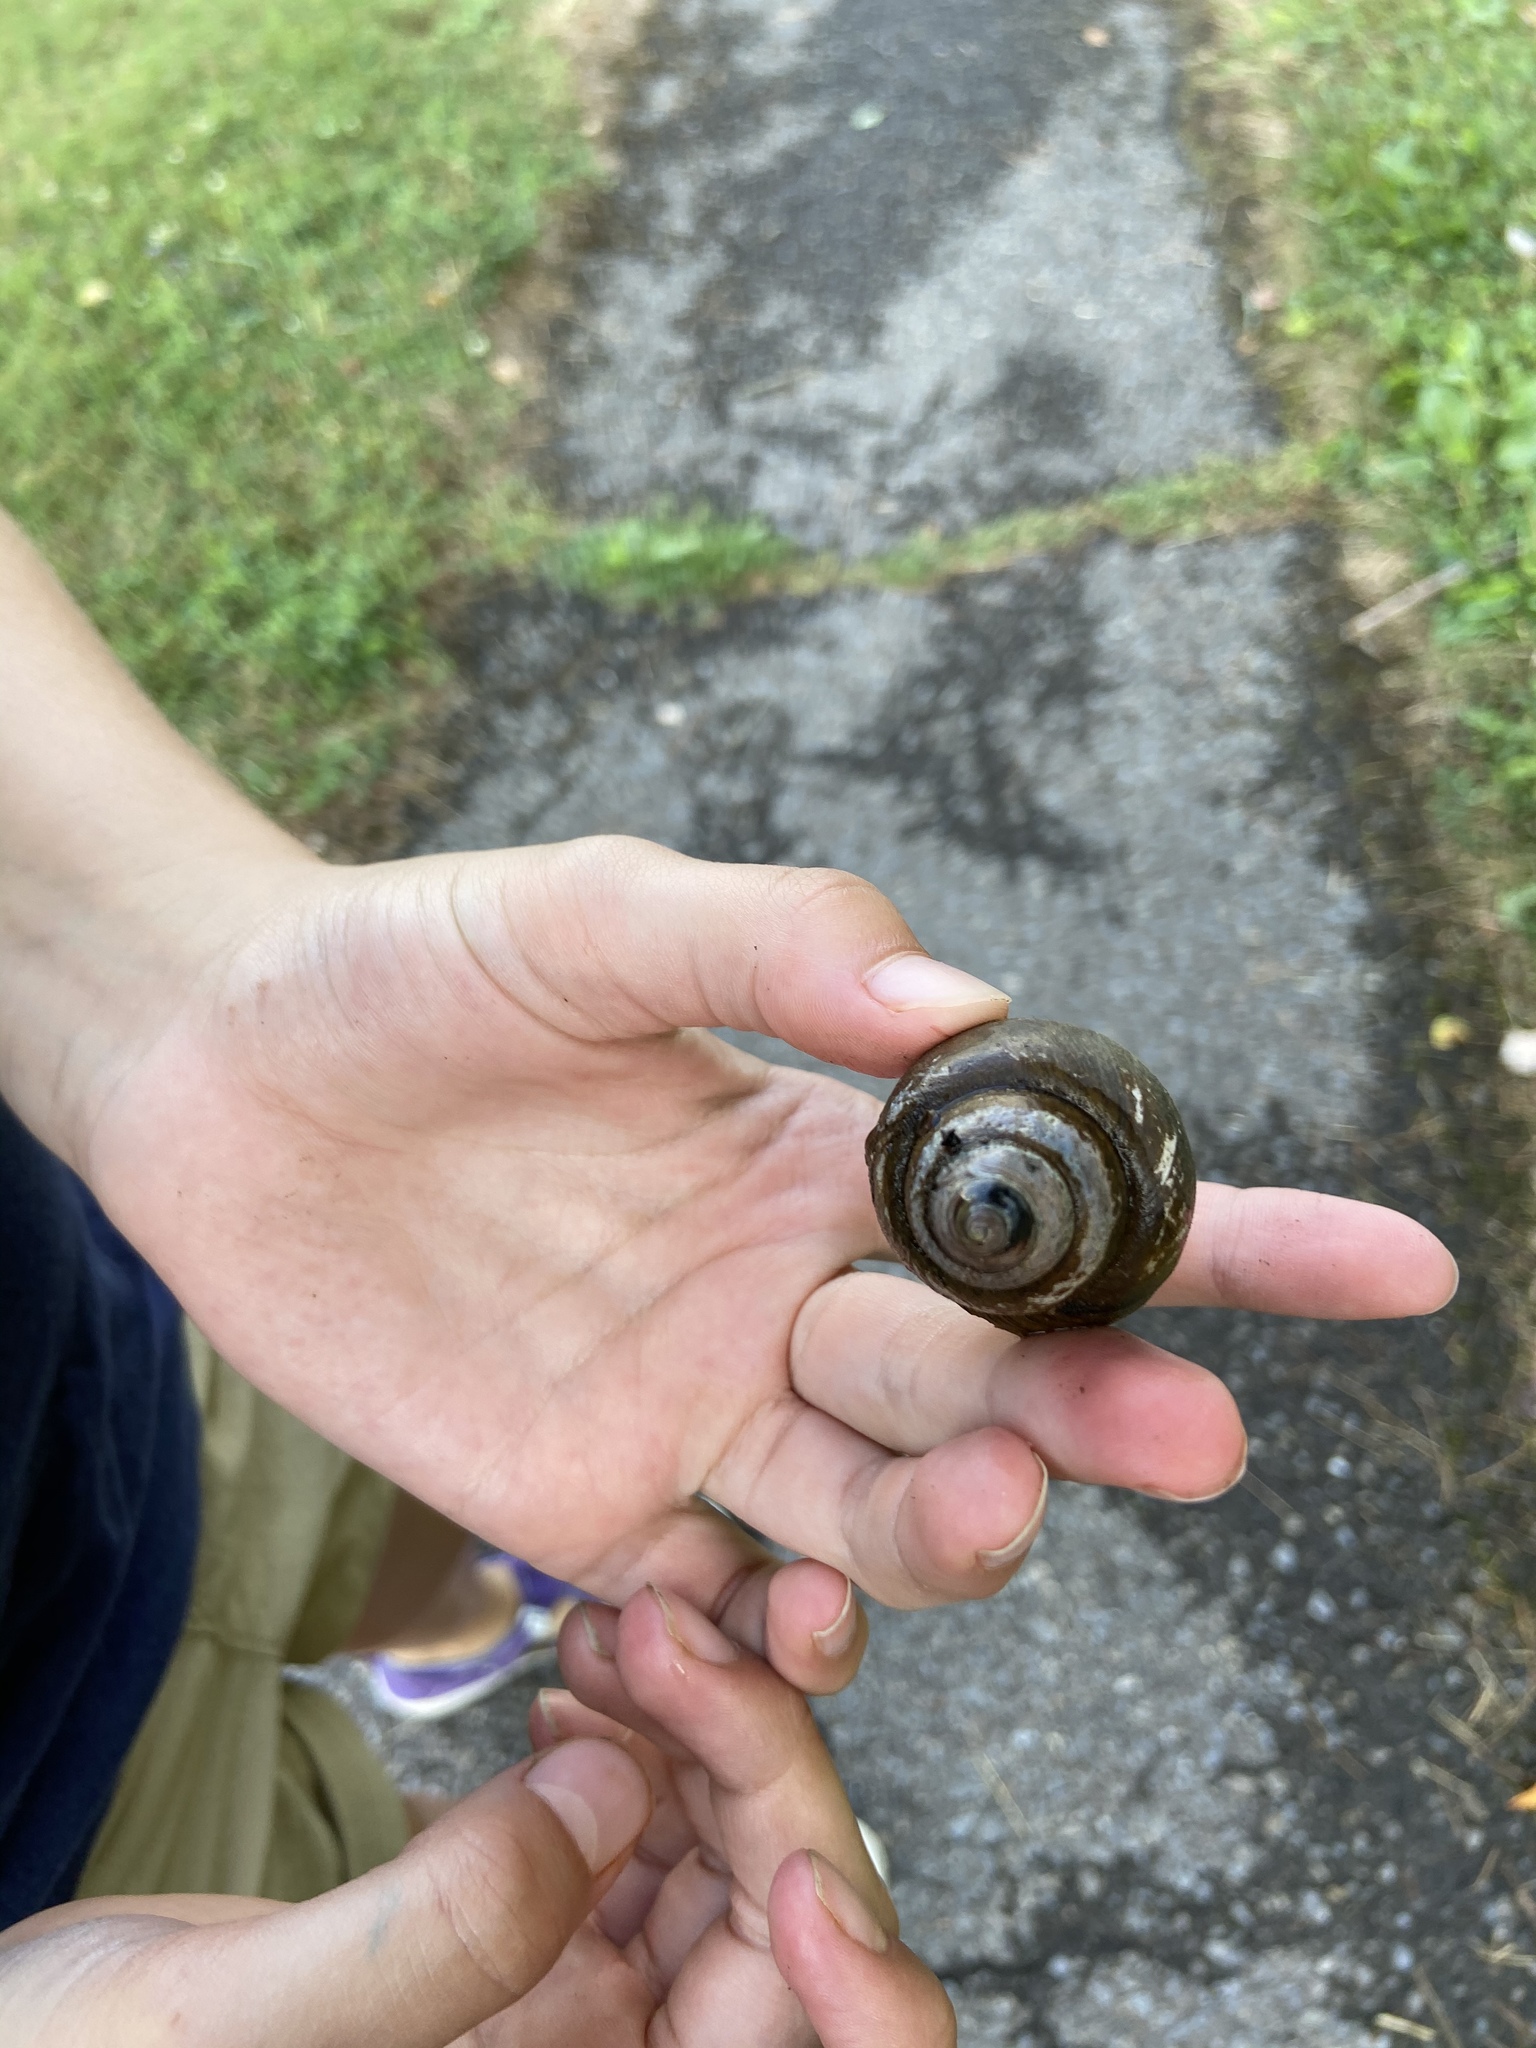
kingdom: Animalia
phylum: Mollusca
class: Gastropoda
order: Architaenioglossa
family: Viviparidae
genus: Cipangopaludina
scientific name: Cipangopaludina chinensis
